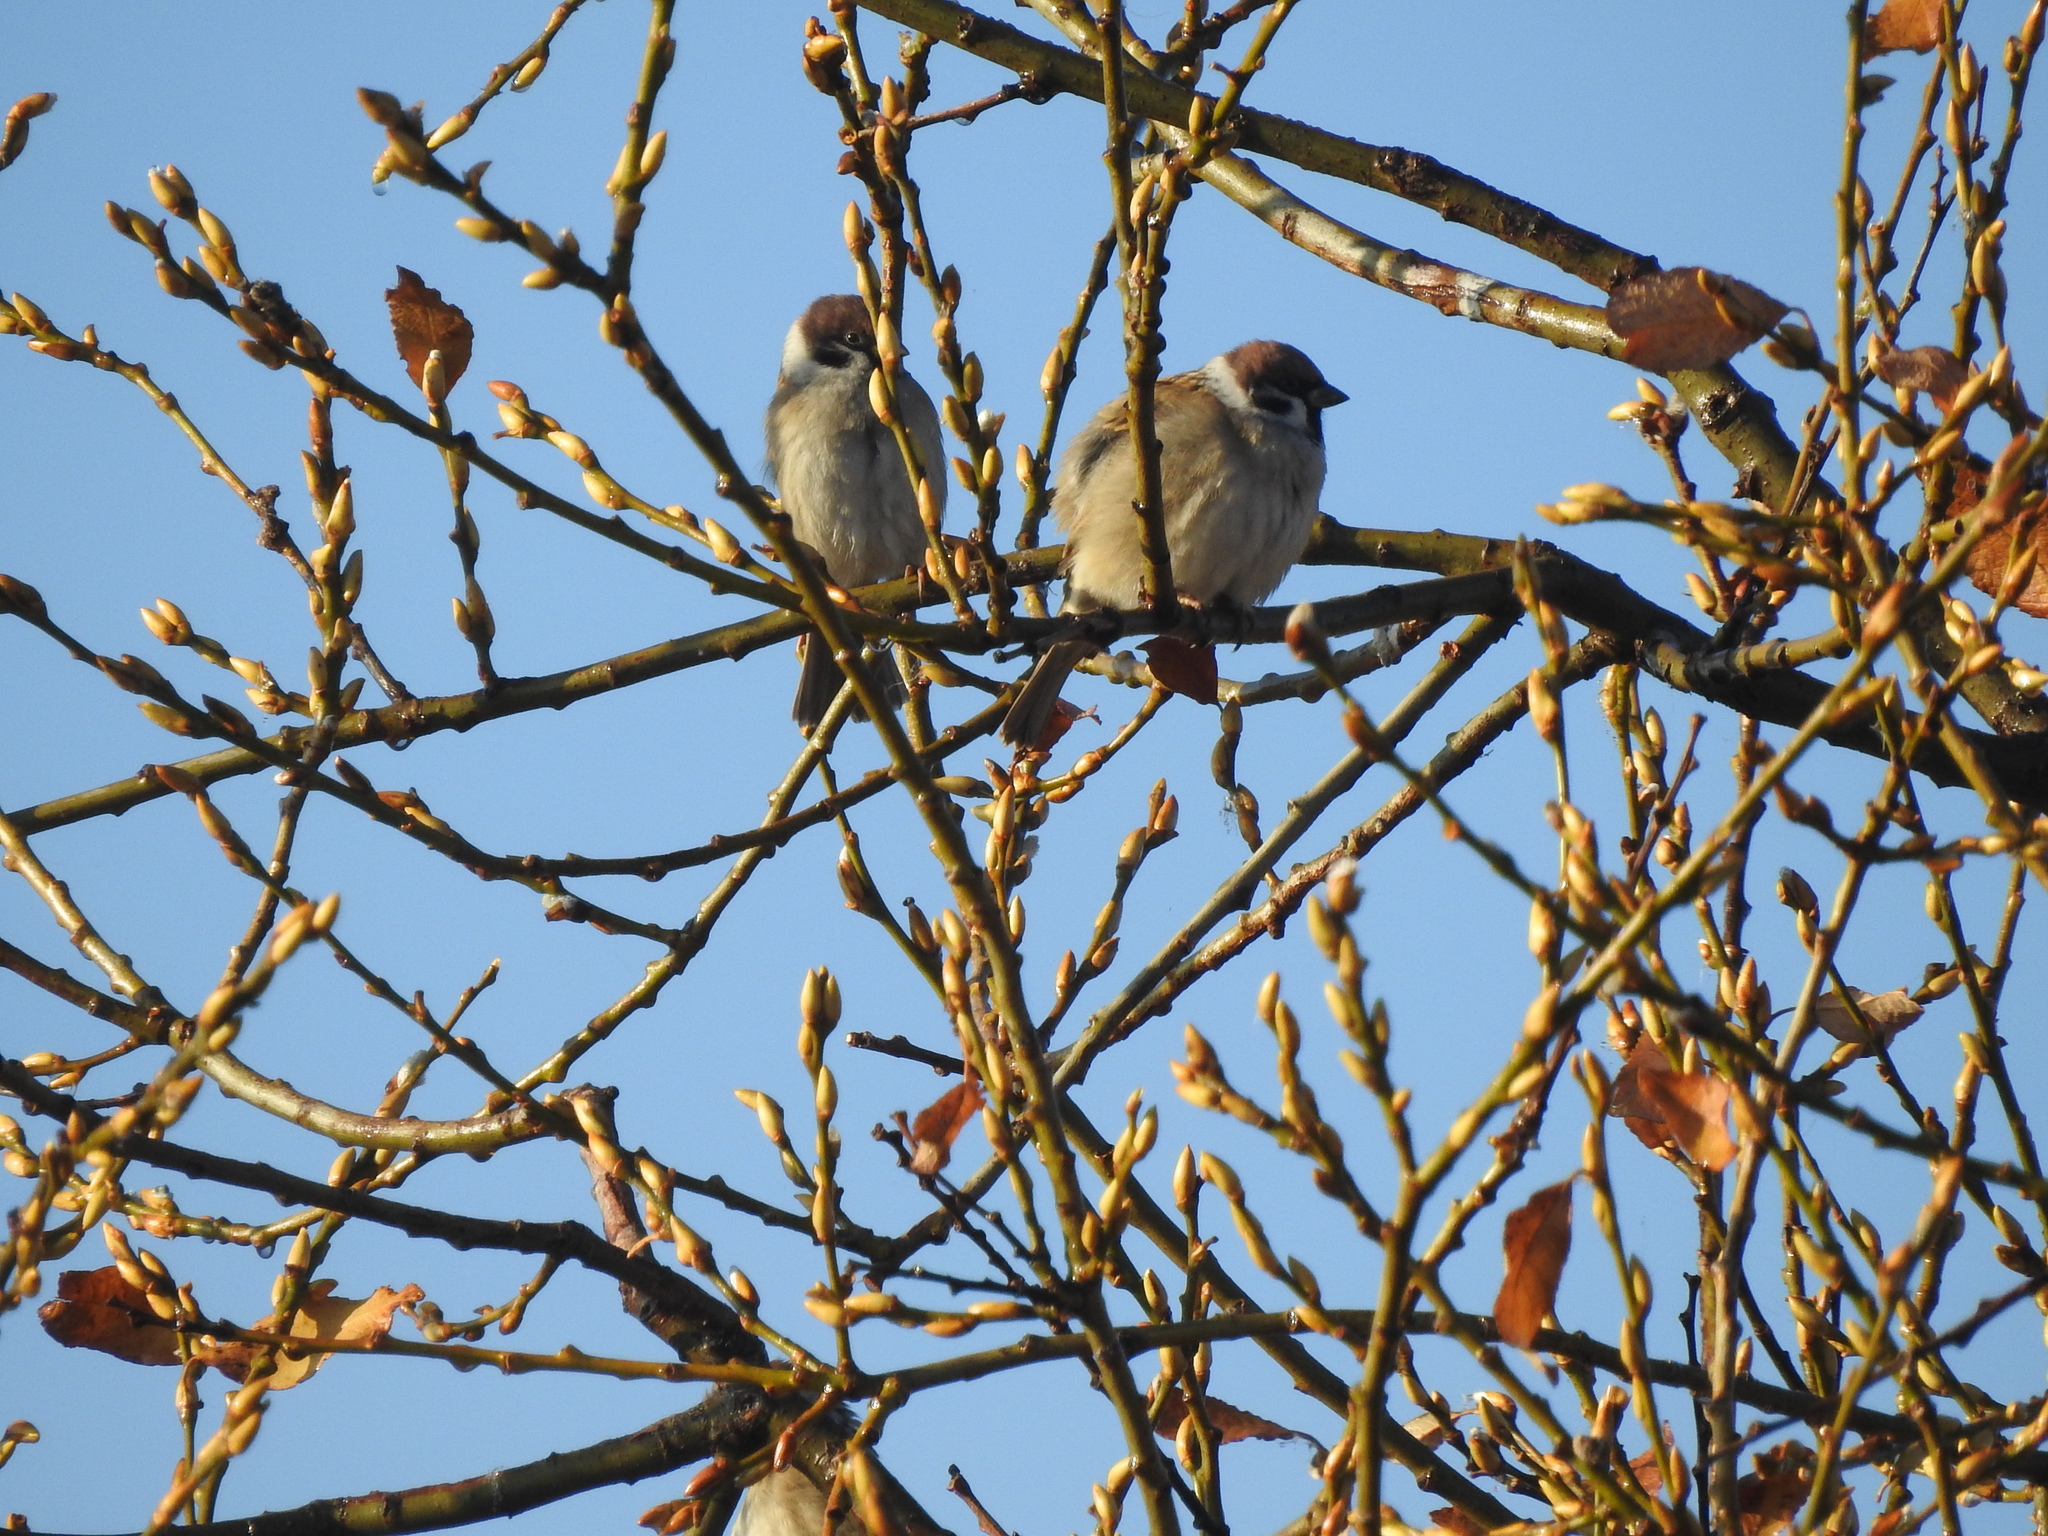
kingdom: Animalia
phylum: Chordata
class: Aves
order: Passeriformes
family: Passeridae
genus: Passer
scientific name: Passer montanus
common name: Eurasian tree sparrow
